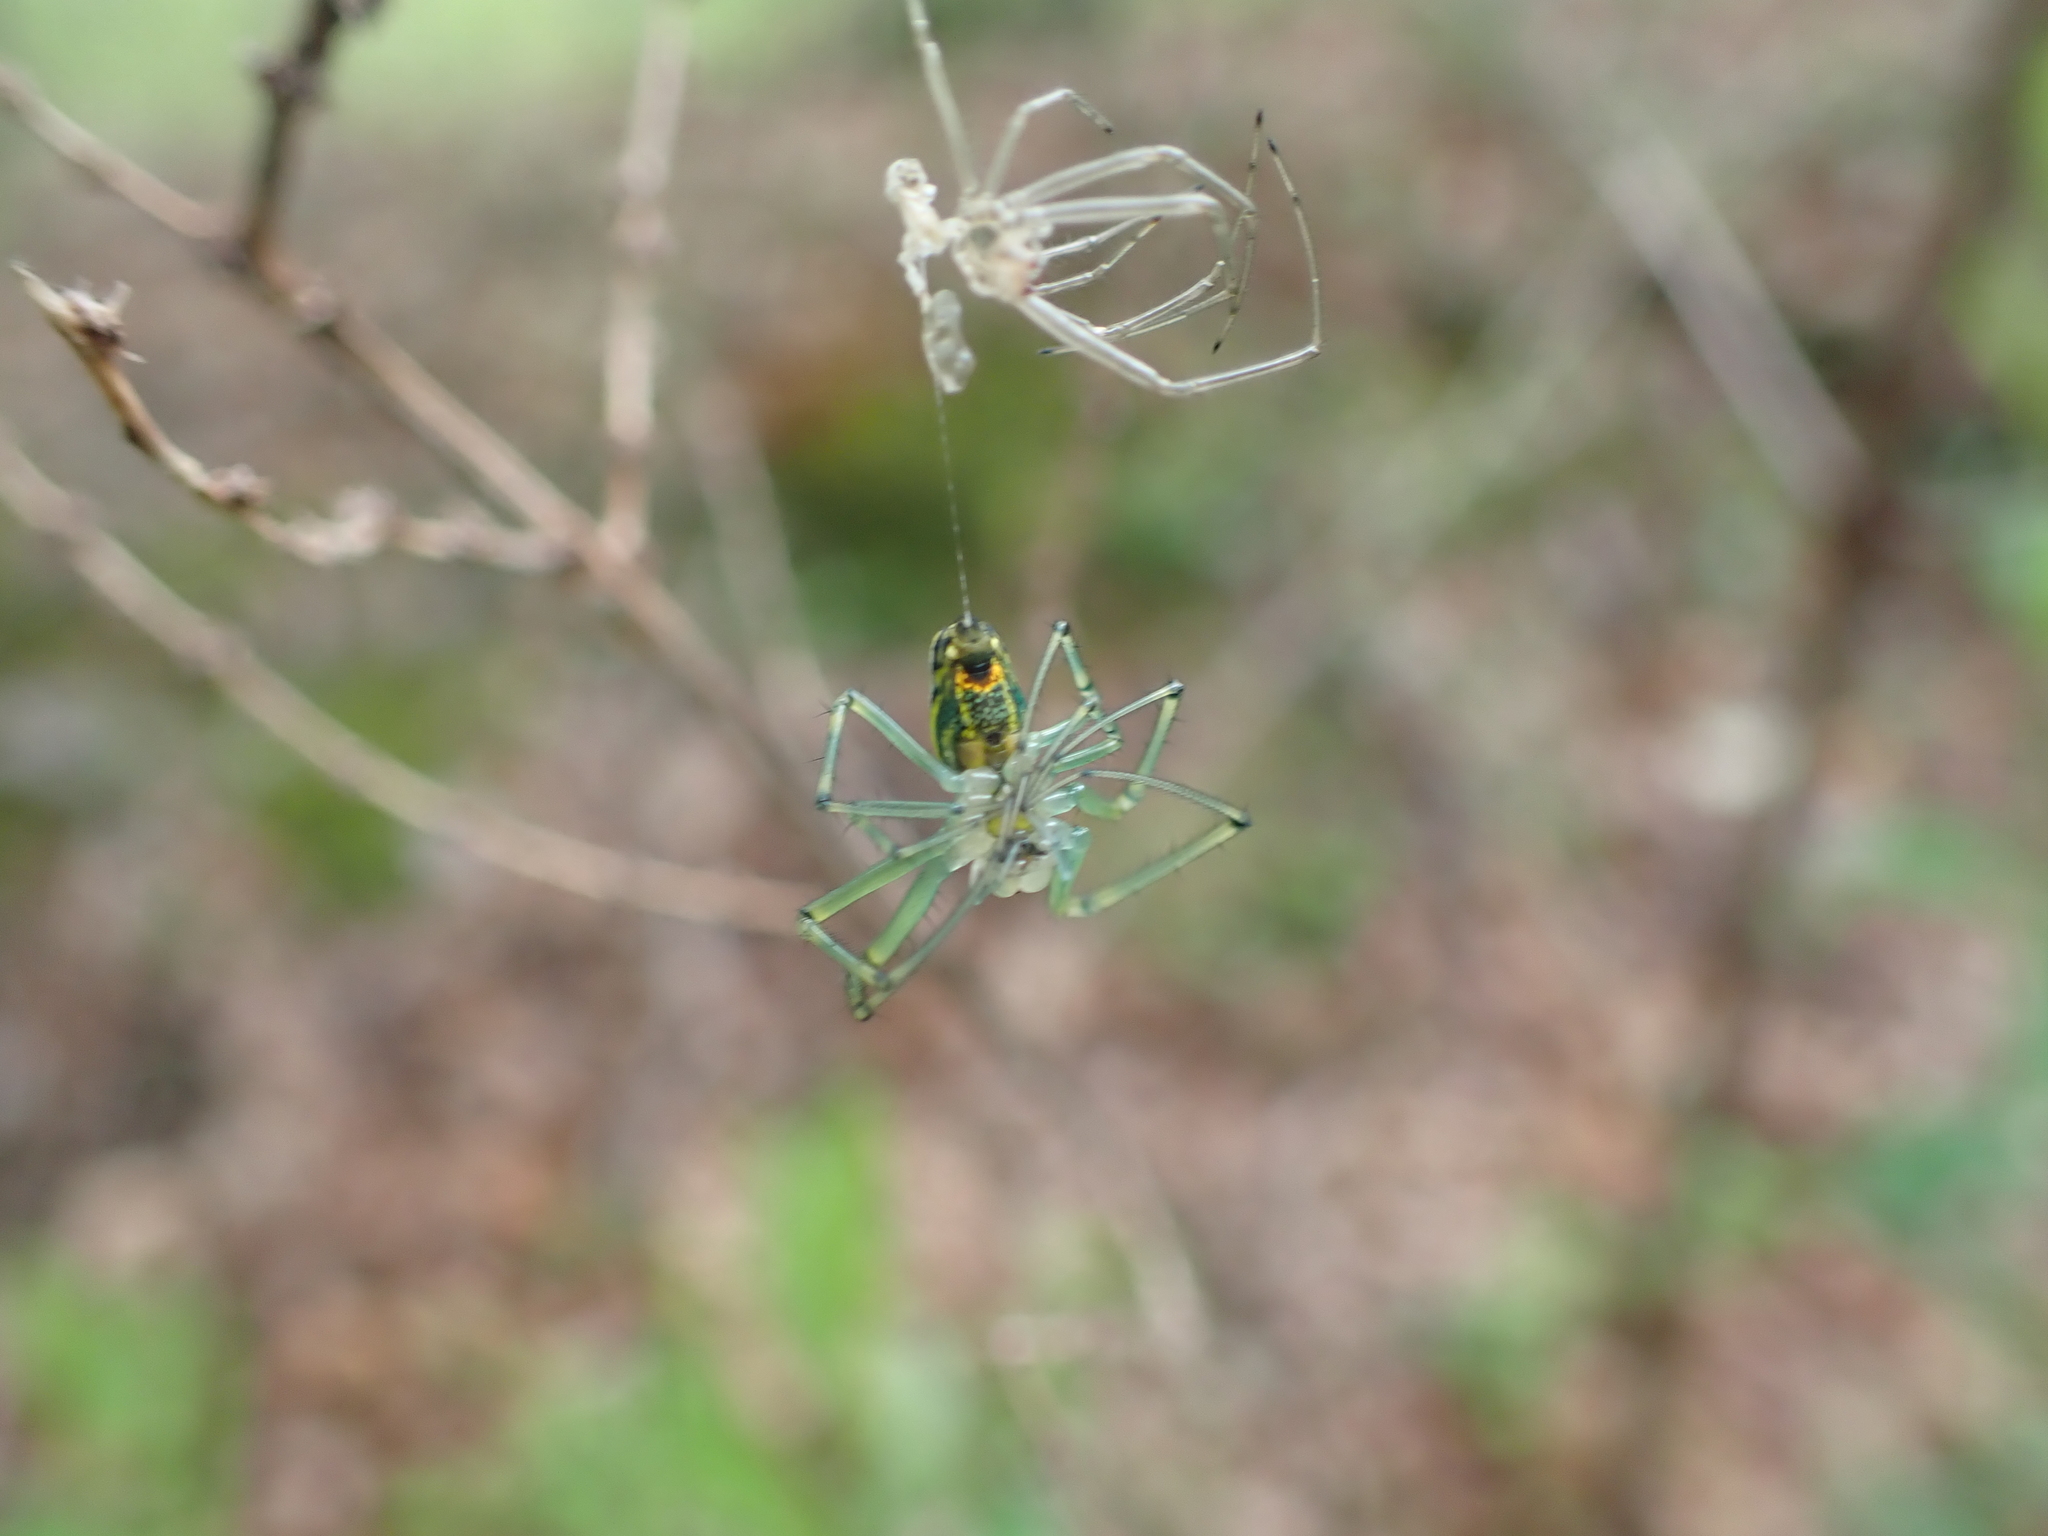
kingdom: Animalia
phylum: Arthropoda
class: Arachnida
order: Araneae
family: Tetragnathidae
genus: Leucauge
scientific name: Leucauge venusta
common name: Longjawed orb weavers
